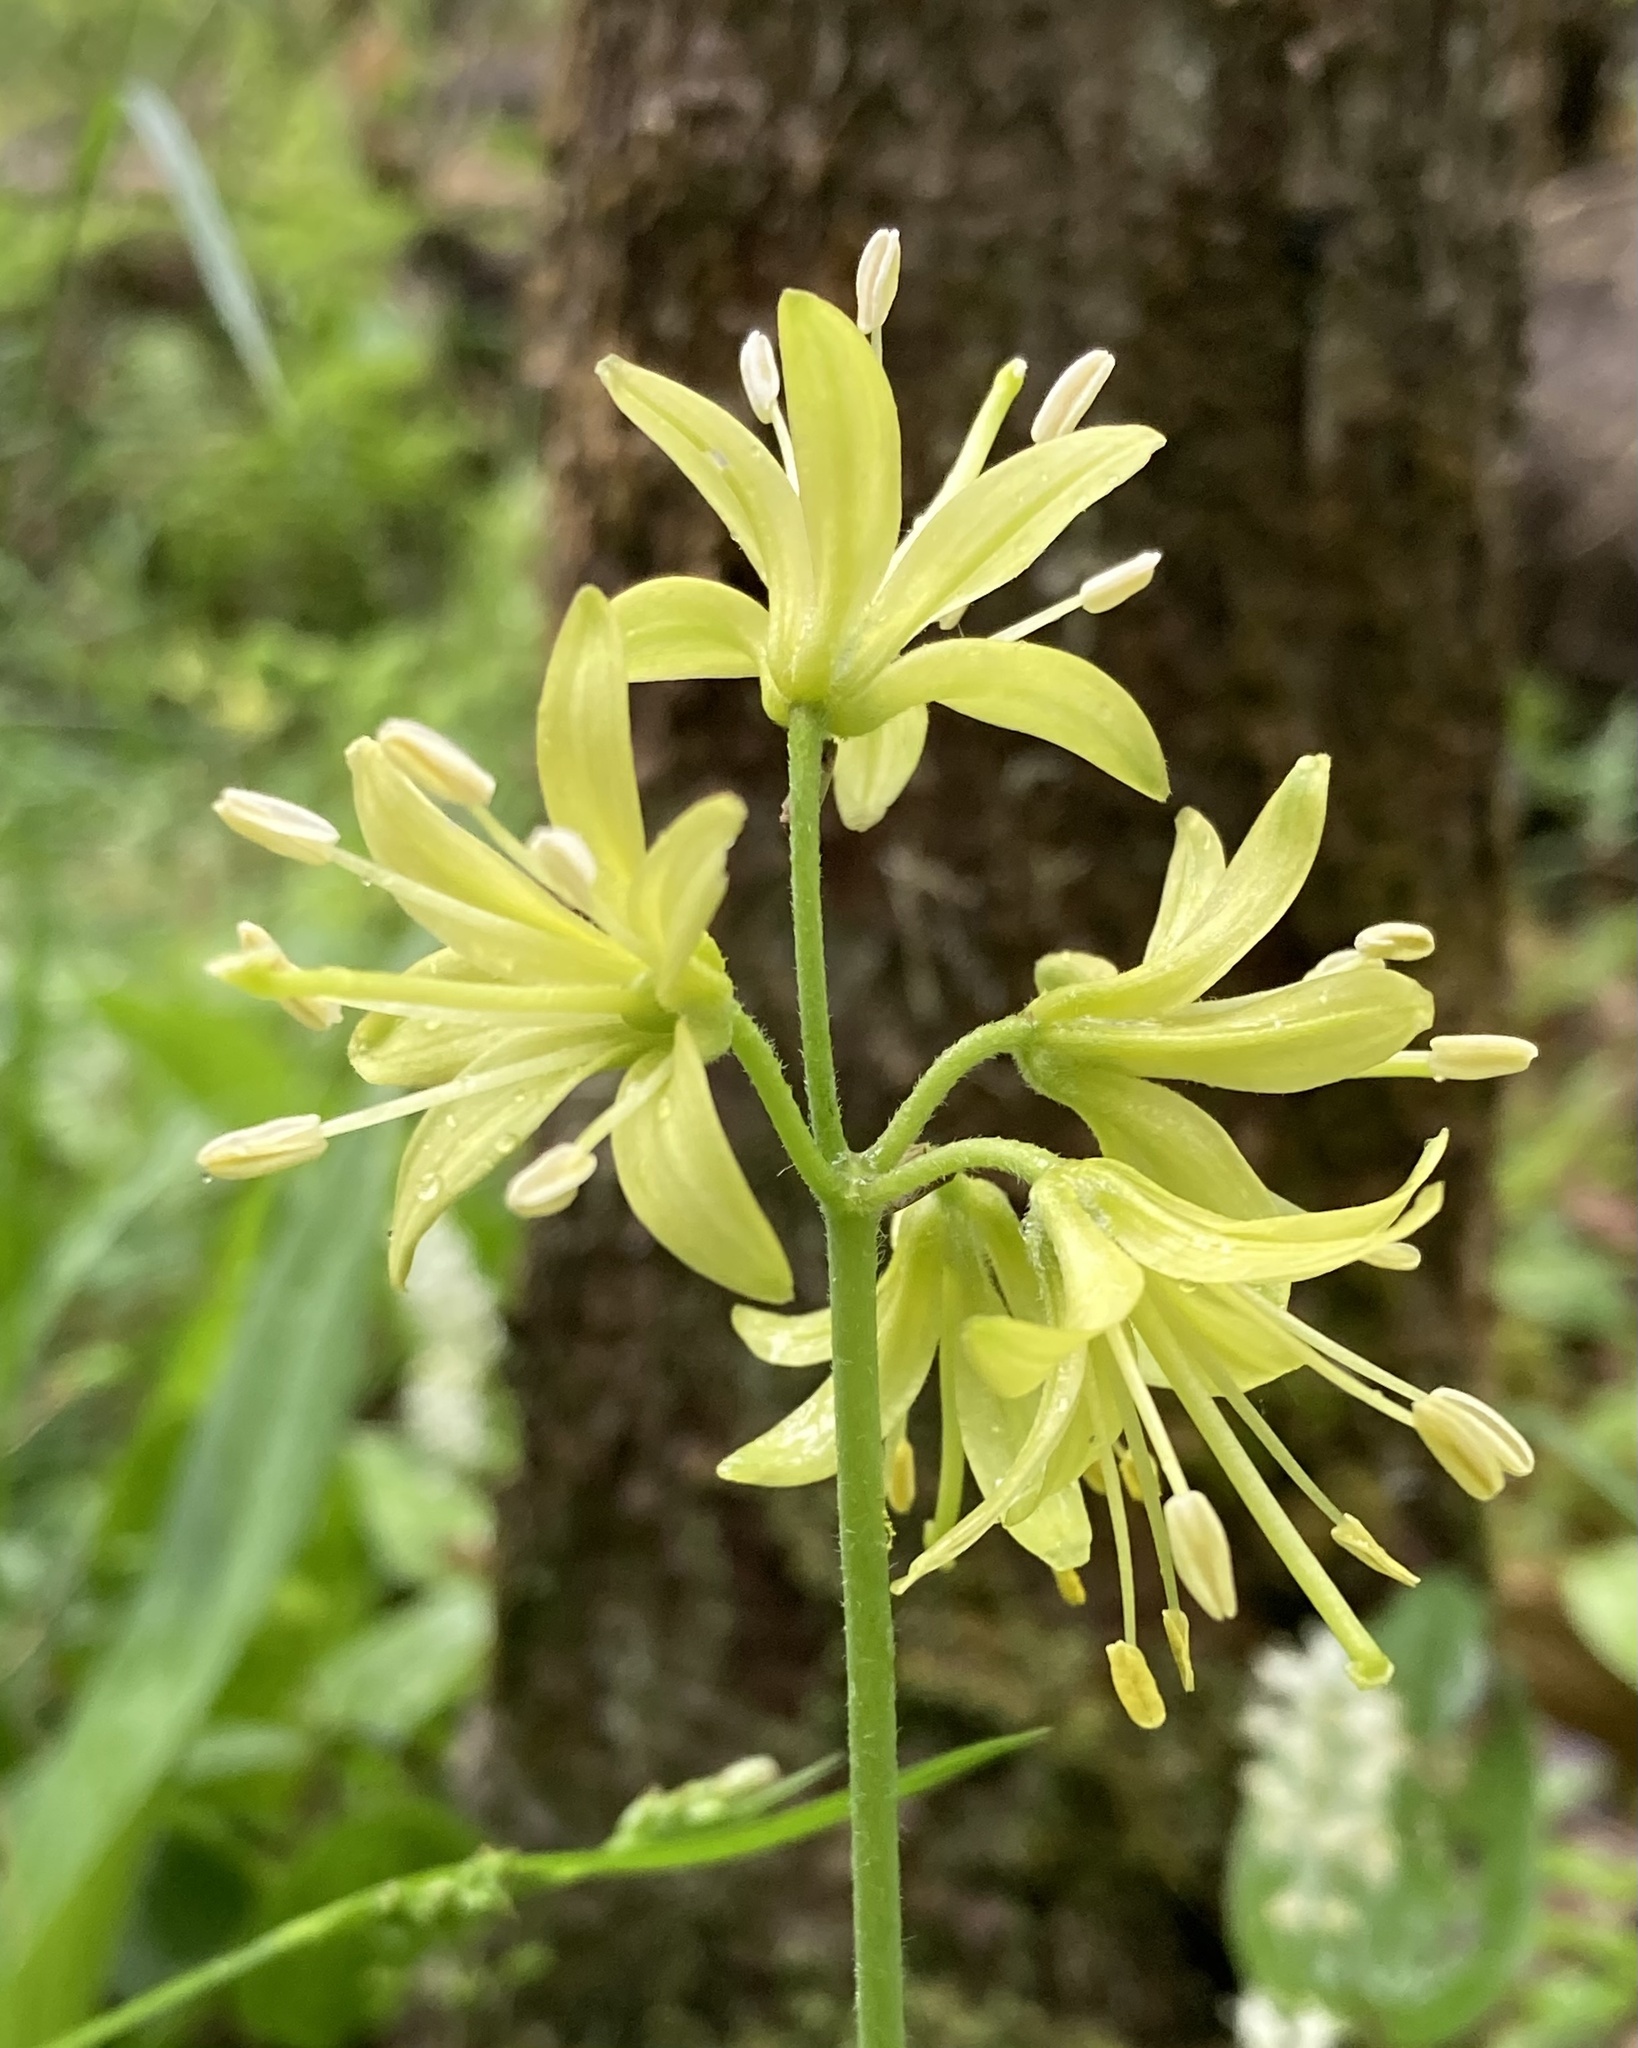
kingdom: Plantae
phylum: Tracheophyta
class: Liliopsida
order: Liliales
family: Liliaceae
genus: Clintonia
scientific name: Clintonia borealis
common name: Yellow clintonia
